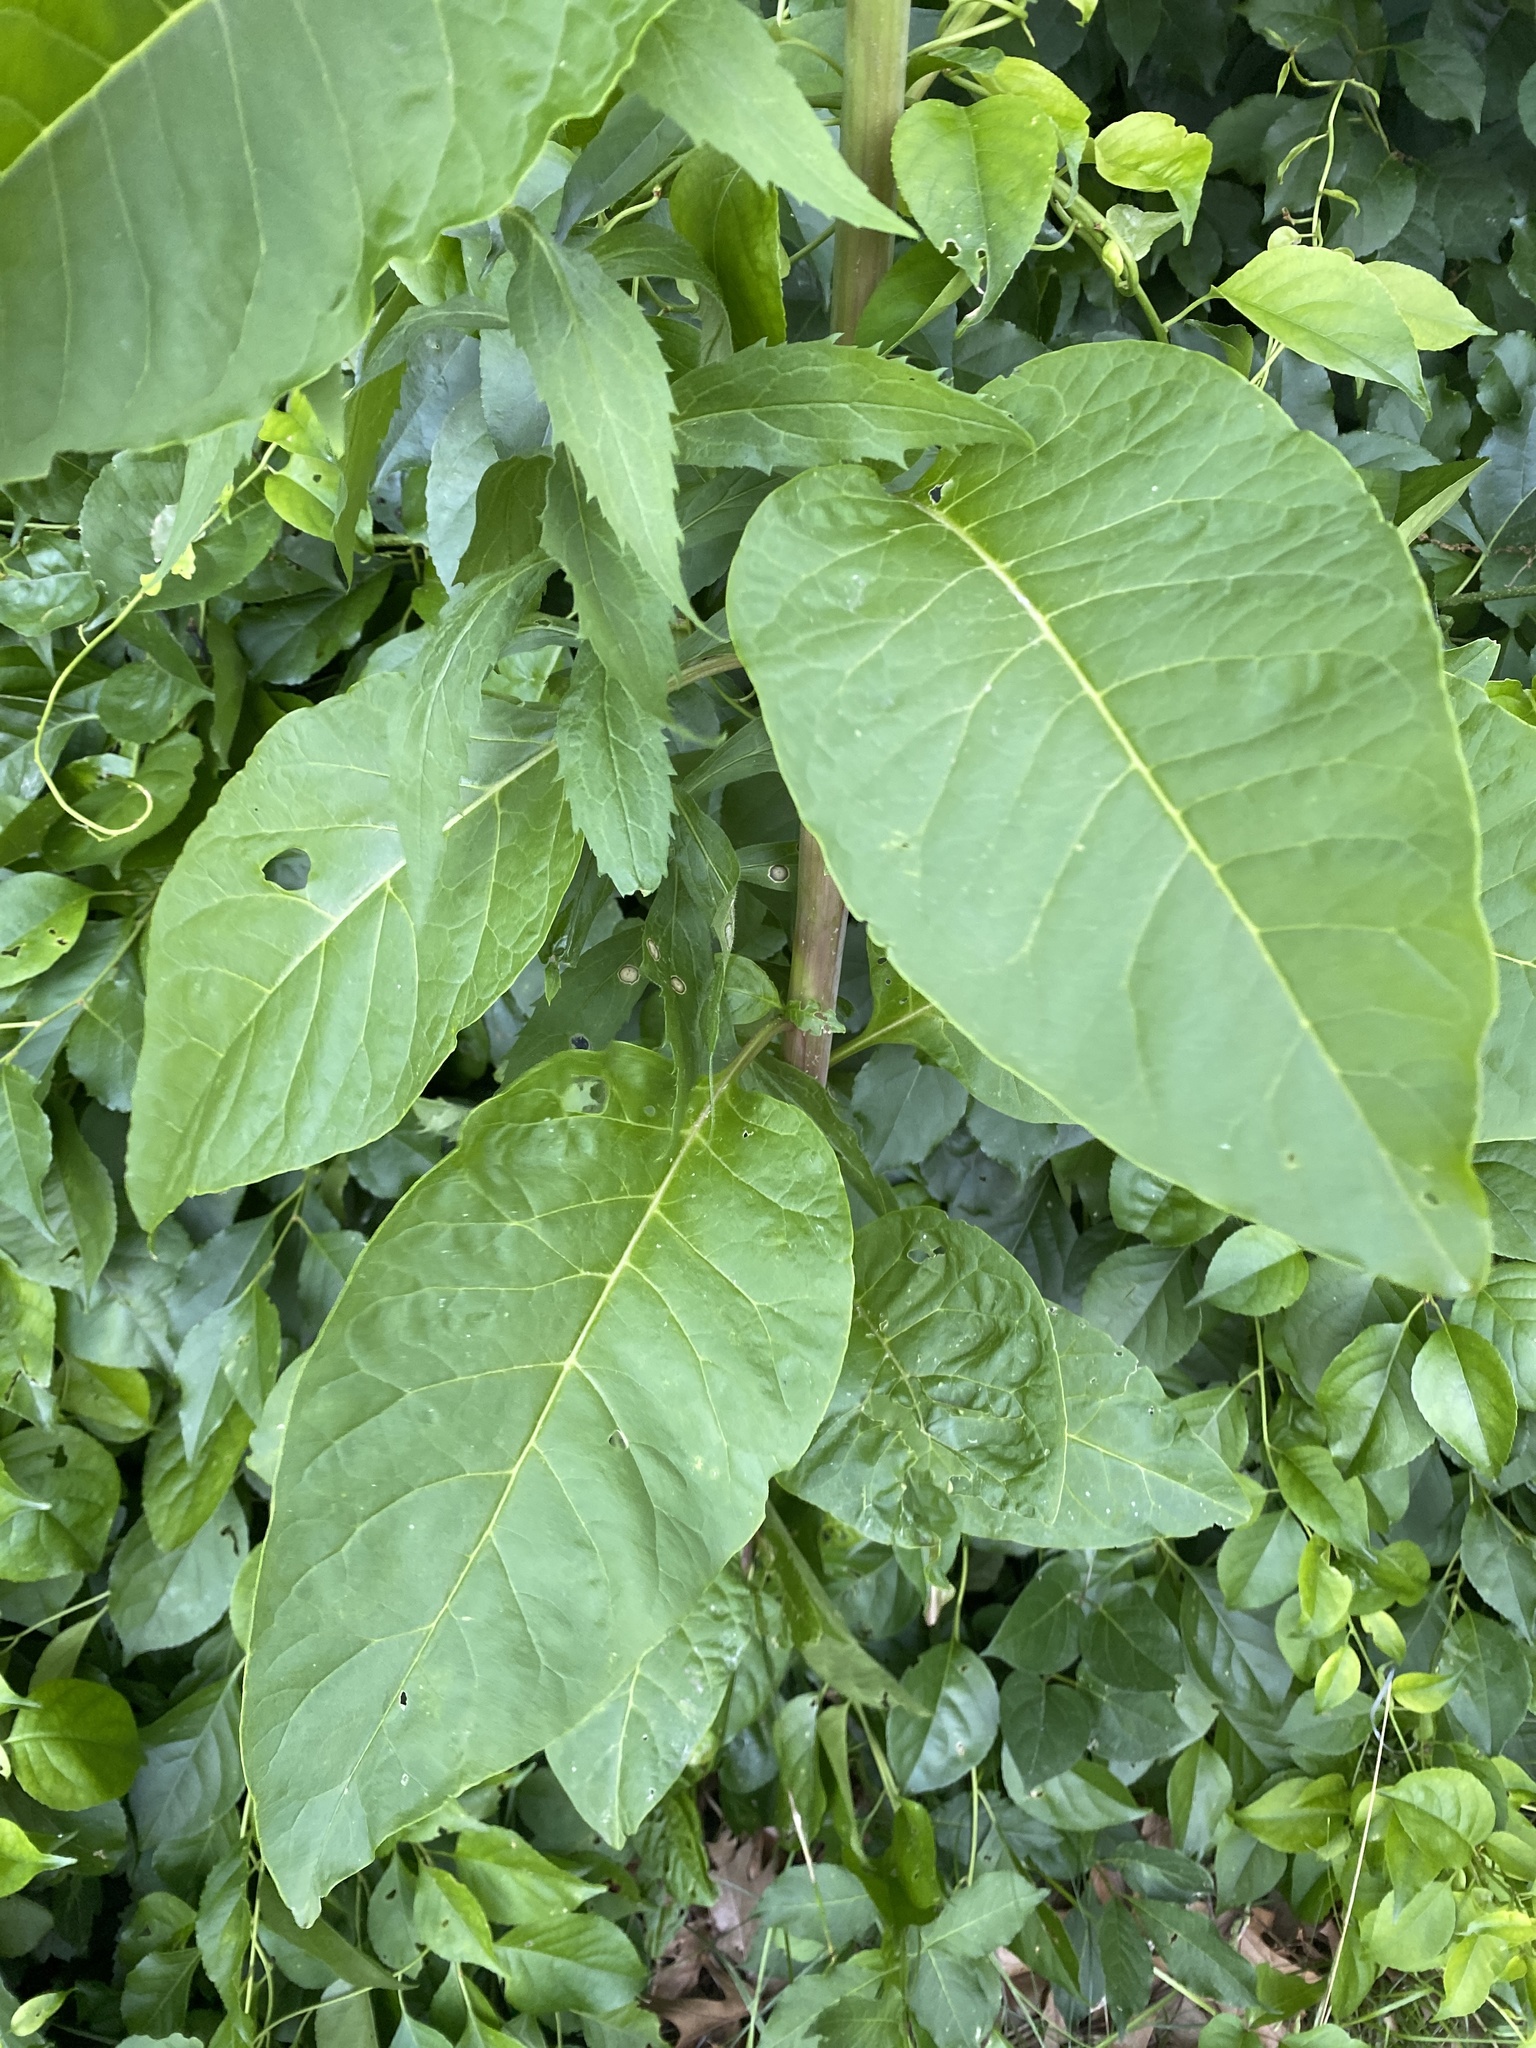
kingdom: Plantae
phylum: Tracheophyta
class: Magnoliopsida
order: Caryophyllales
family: Phytolaccaceae
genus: Phytolacca
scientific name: Phytolacca americana
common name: American pokeweed
